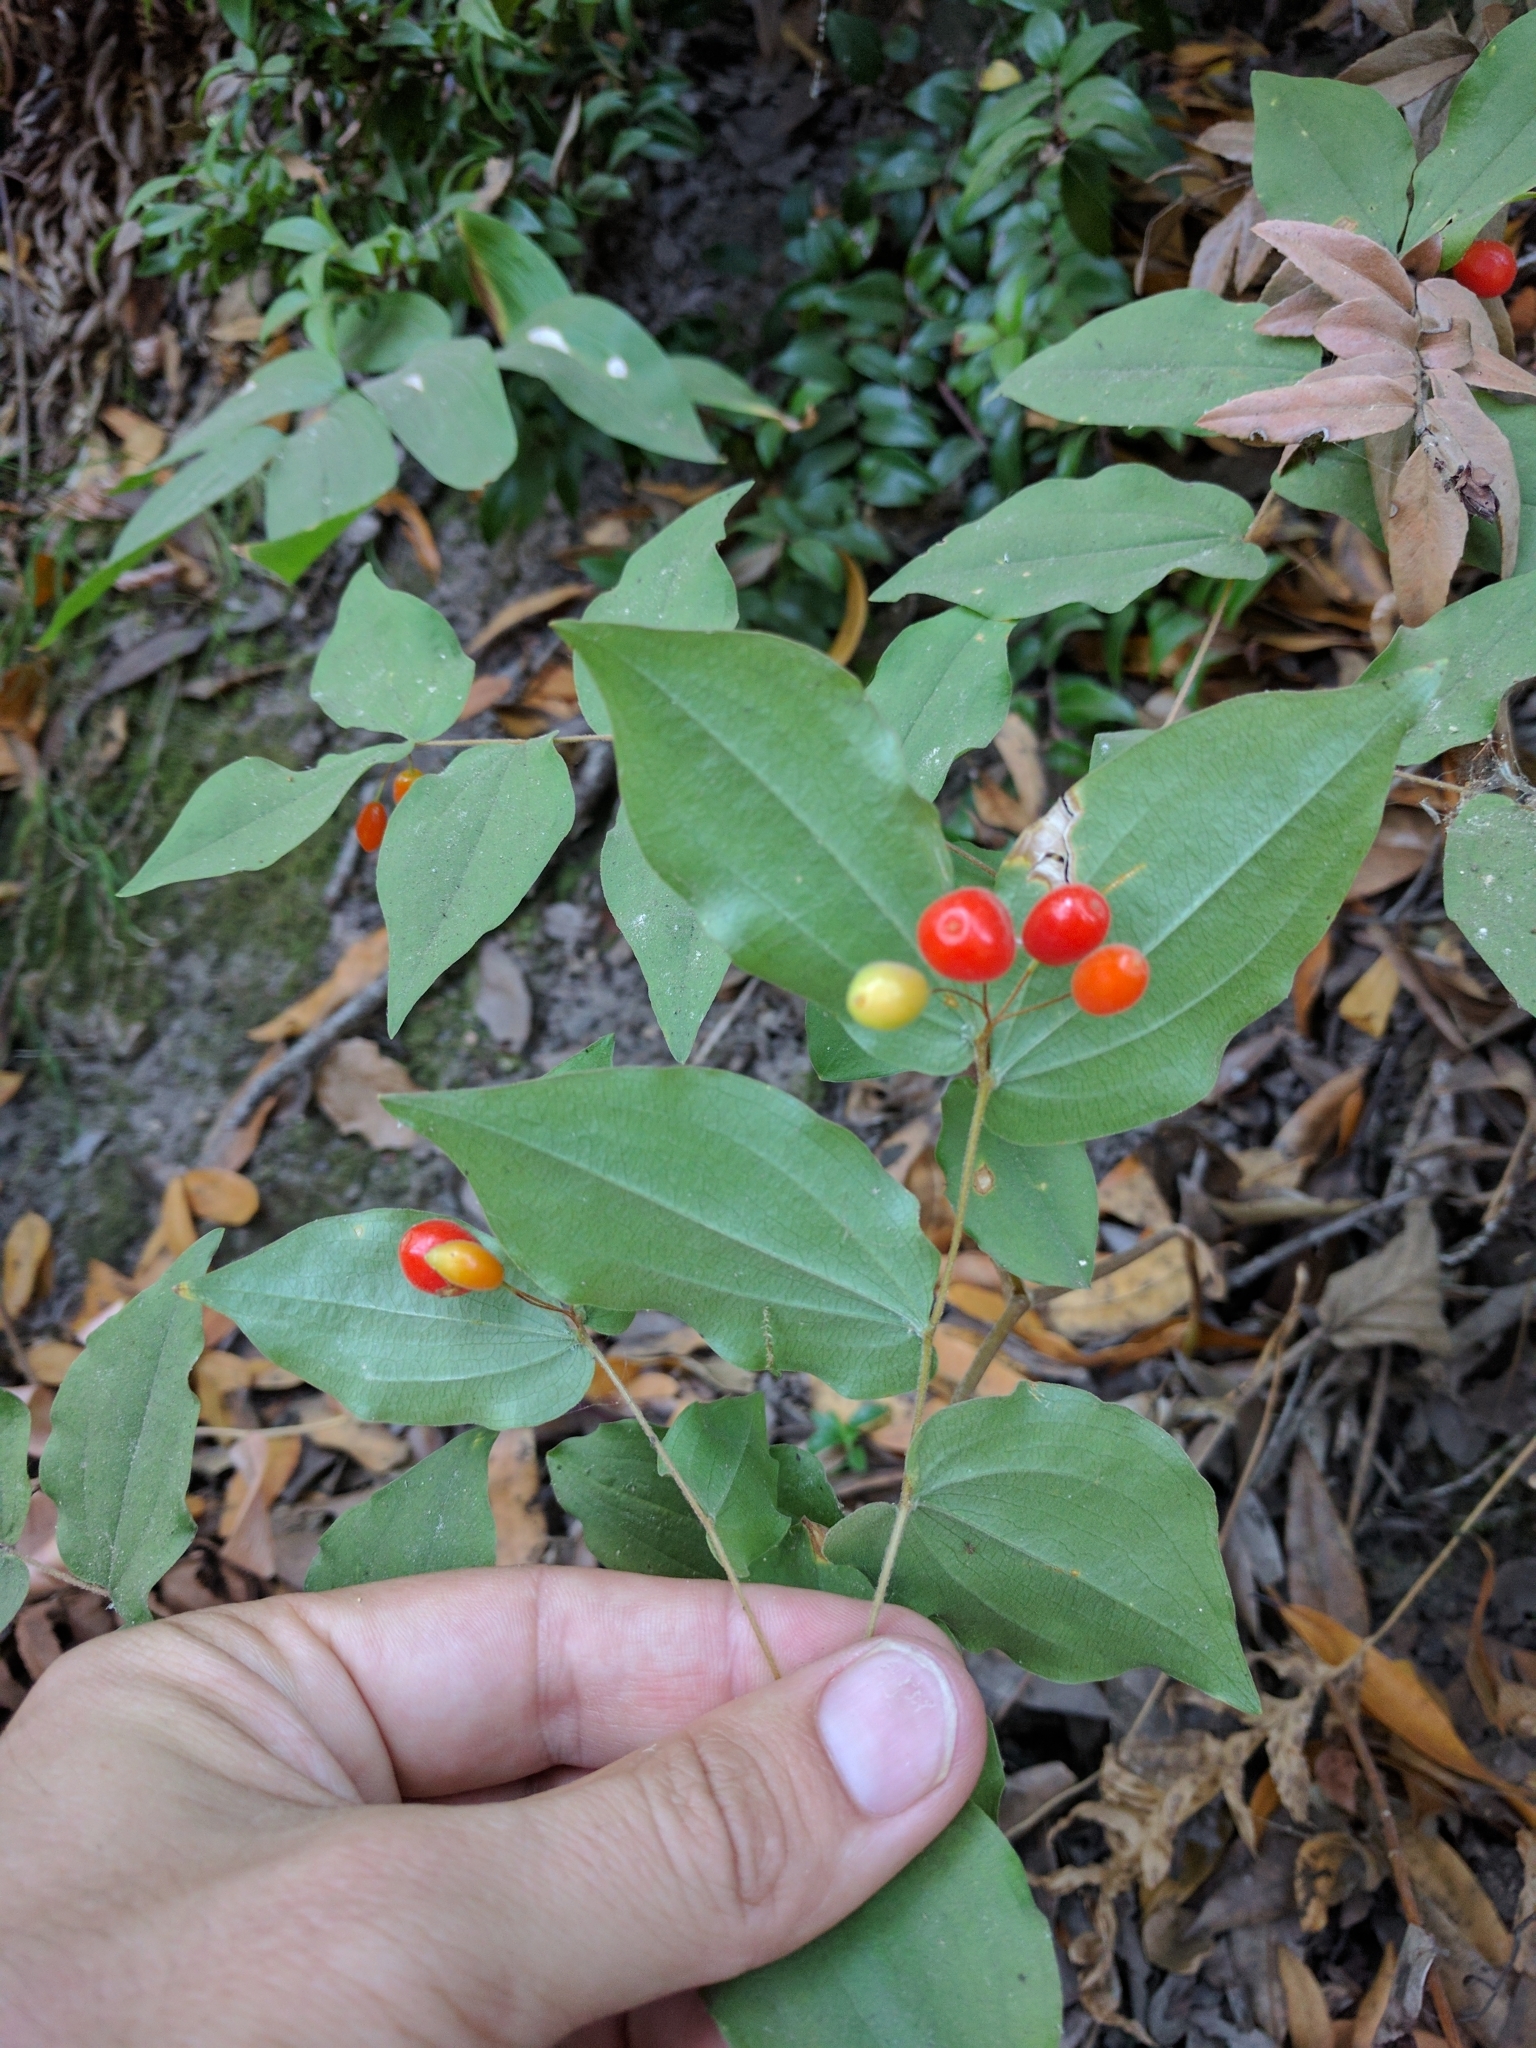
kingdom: Plantae
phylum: Tracheophyta
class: Liliopsida
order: Liliales
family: Liliaceae
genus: Prosartes
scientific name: Prosartes hookeri
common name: Fairy-bells
